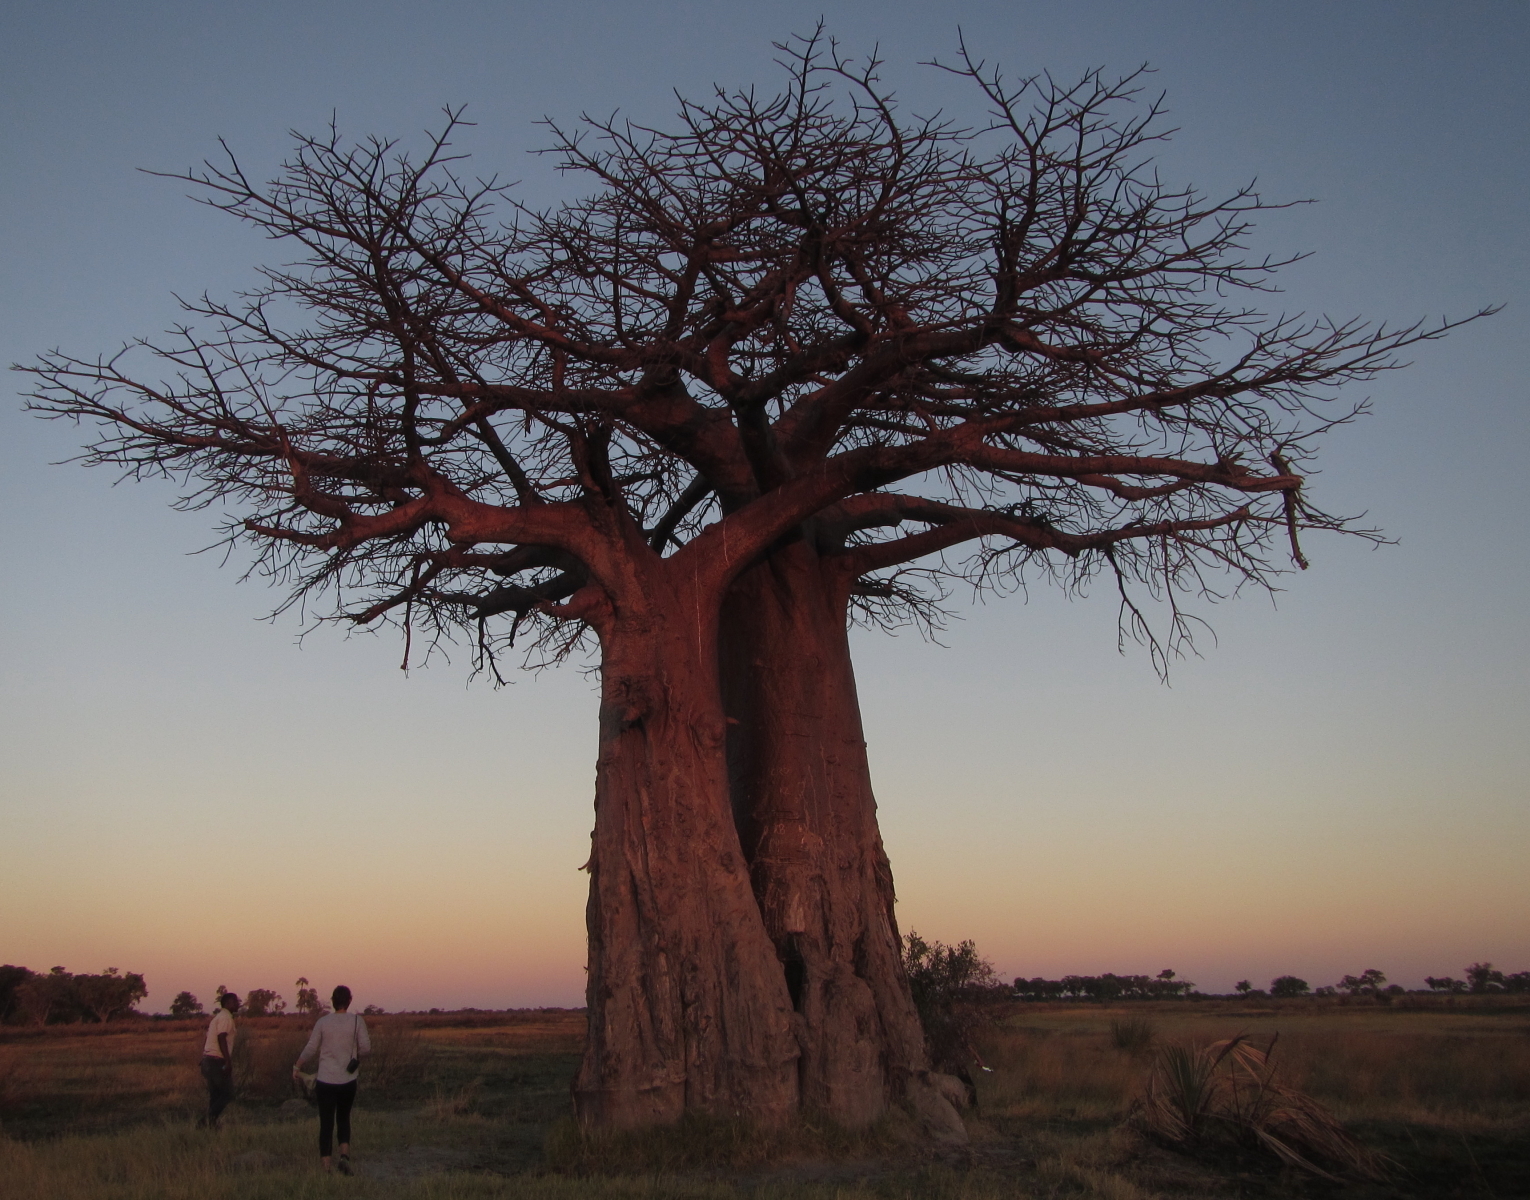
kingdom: Plantae
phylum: Tracheophyta
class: Magnoliopsida
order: Malvales
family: Malvaceae
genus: Adansonia
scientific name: Adansonia digitata
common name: Dead-rat-tree
